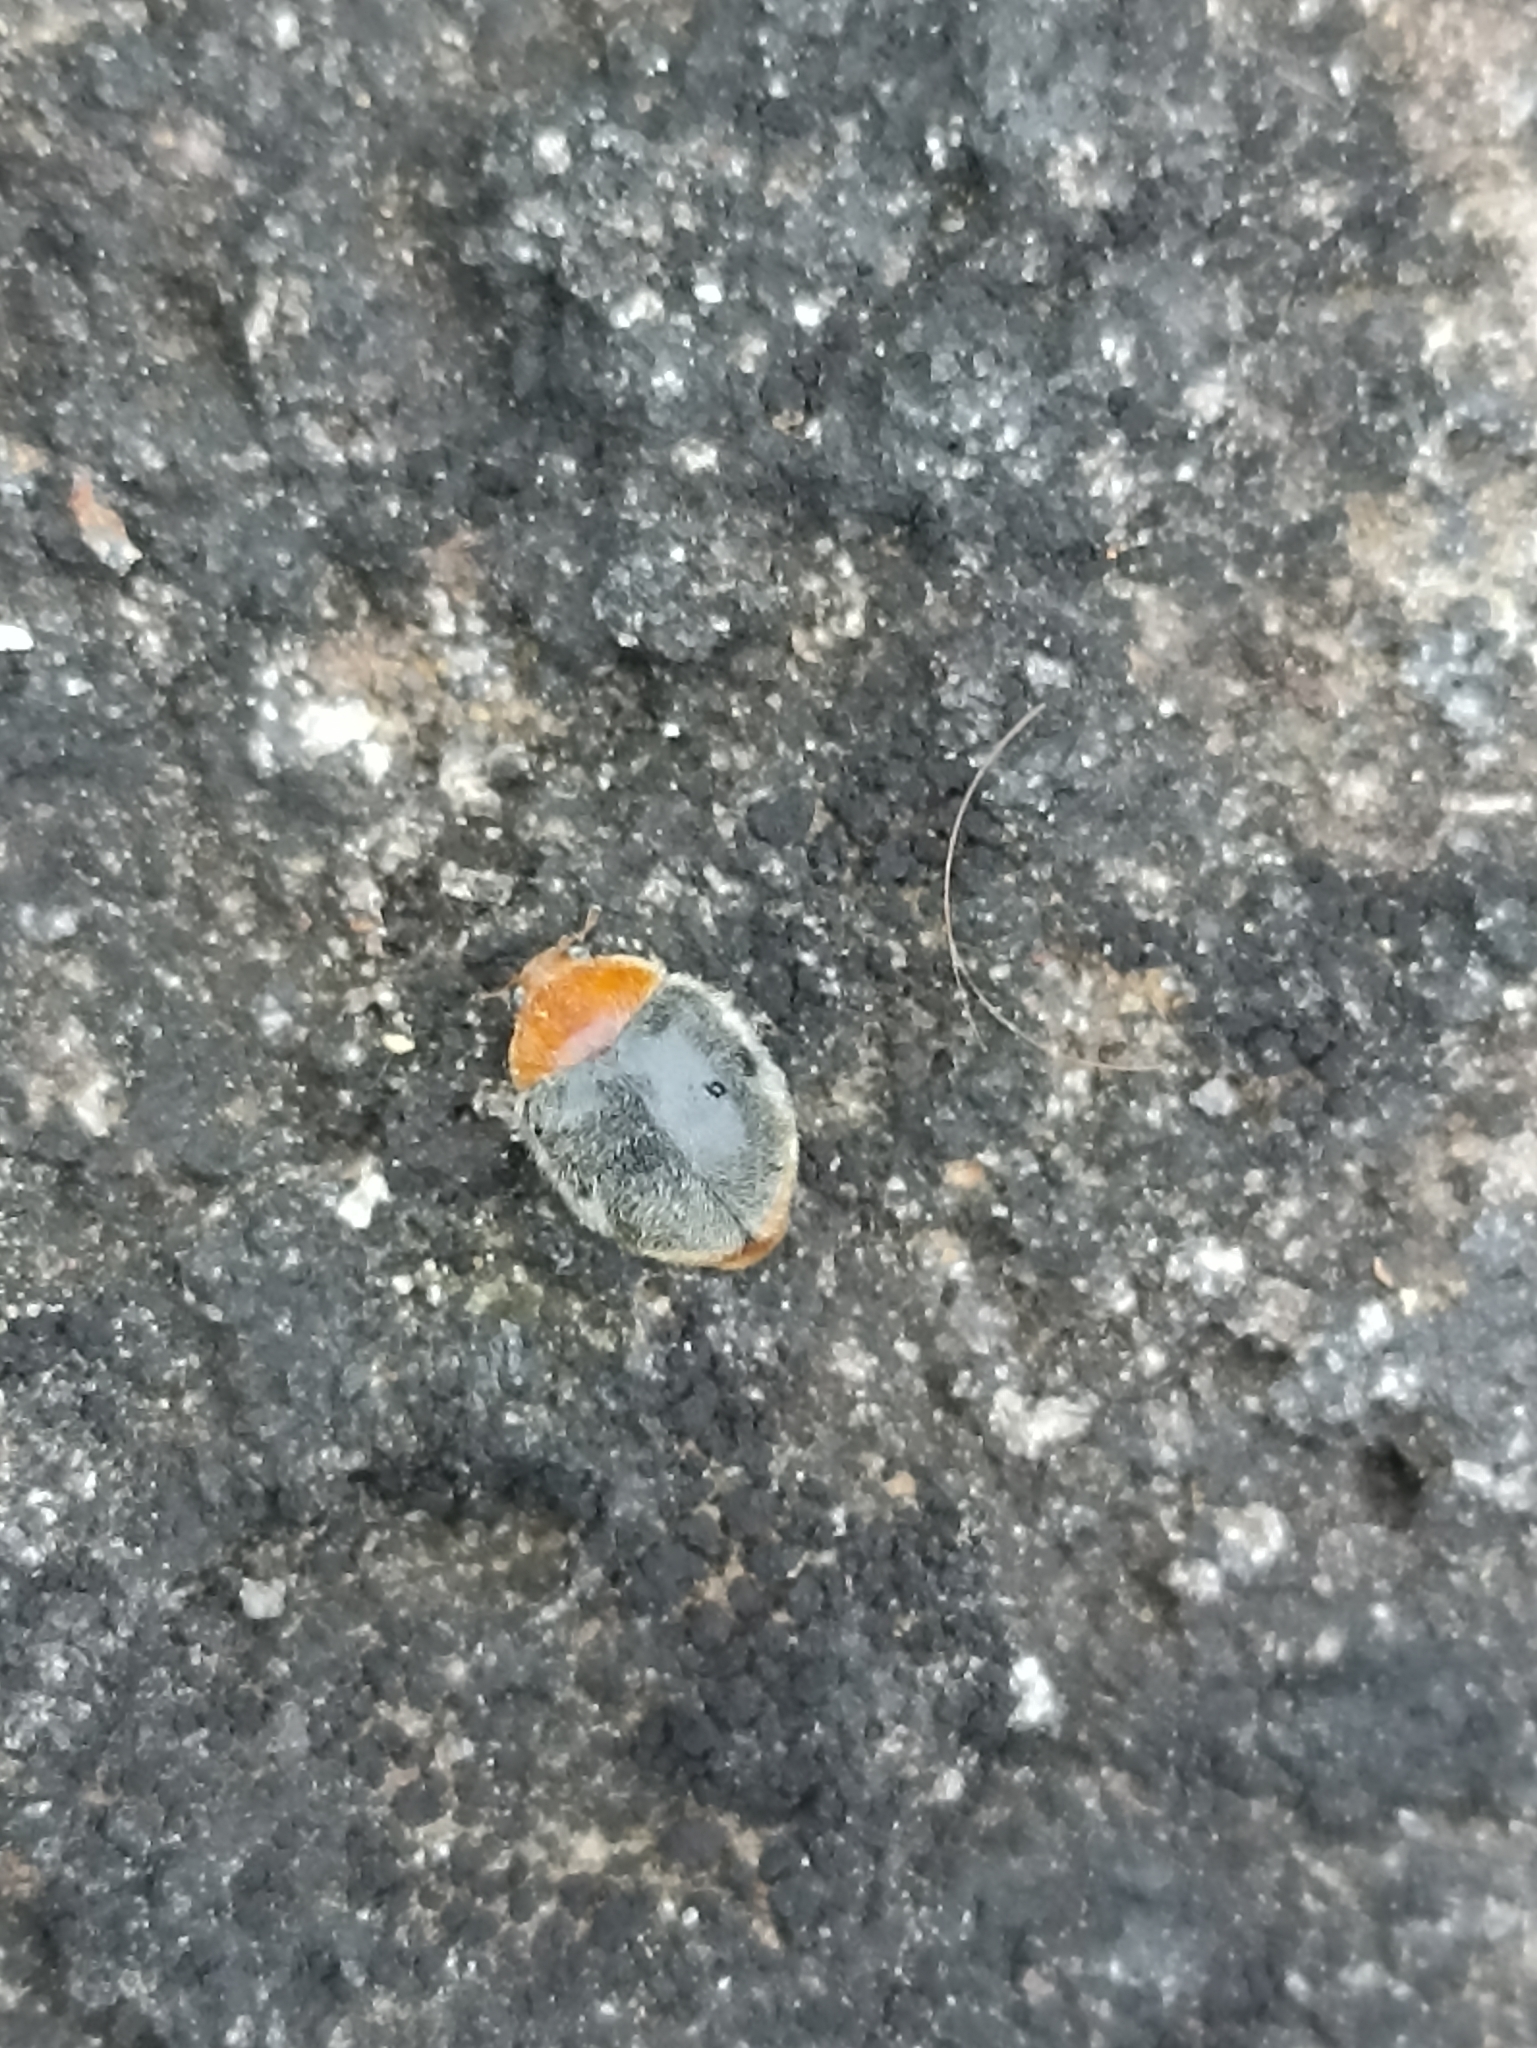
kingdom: Animalia
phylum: Arthropoda
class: Insecta
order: Coleoptera
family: Coccinellidae
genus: Cryptolaemus
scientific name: Cryptolaemus montrouzieri
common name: Mealybug destroyer
